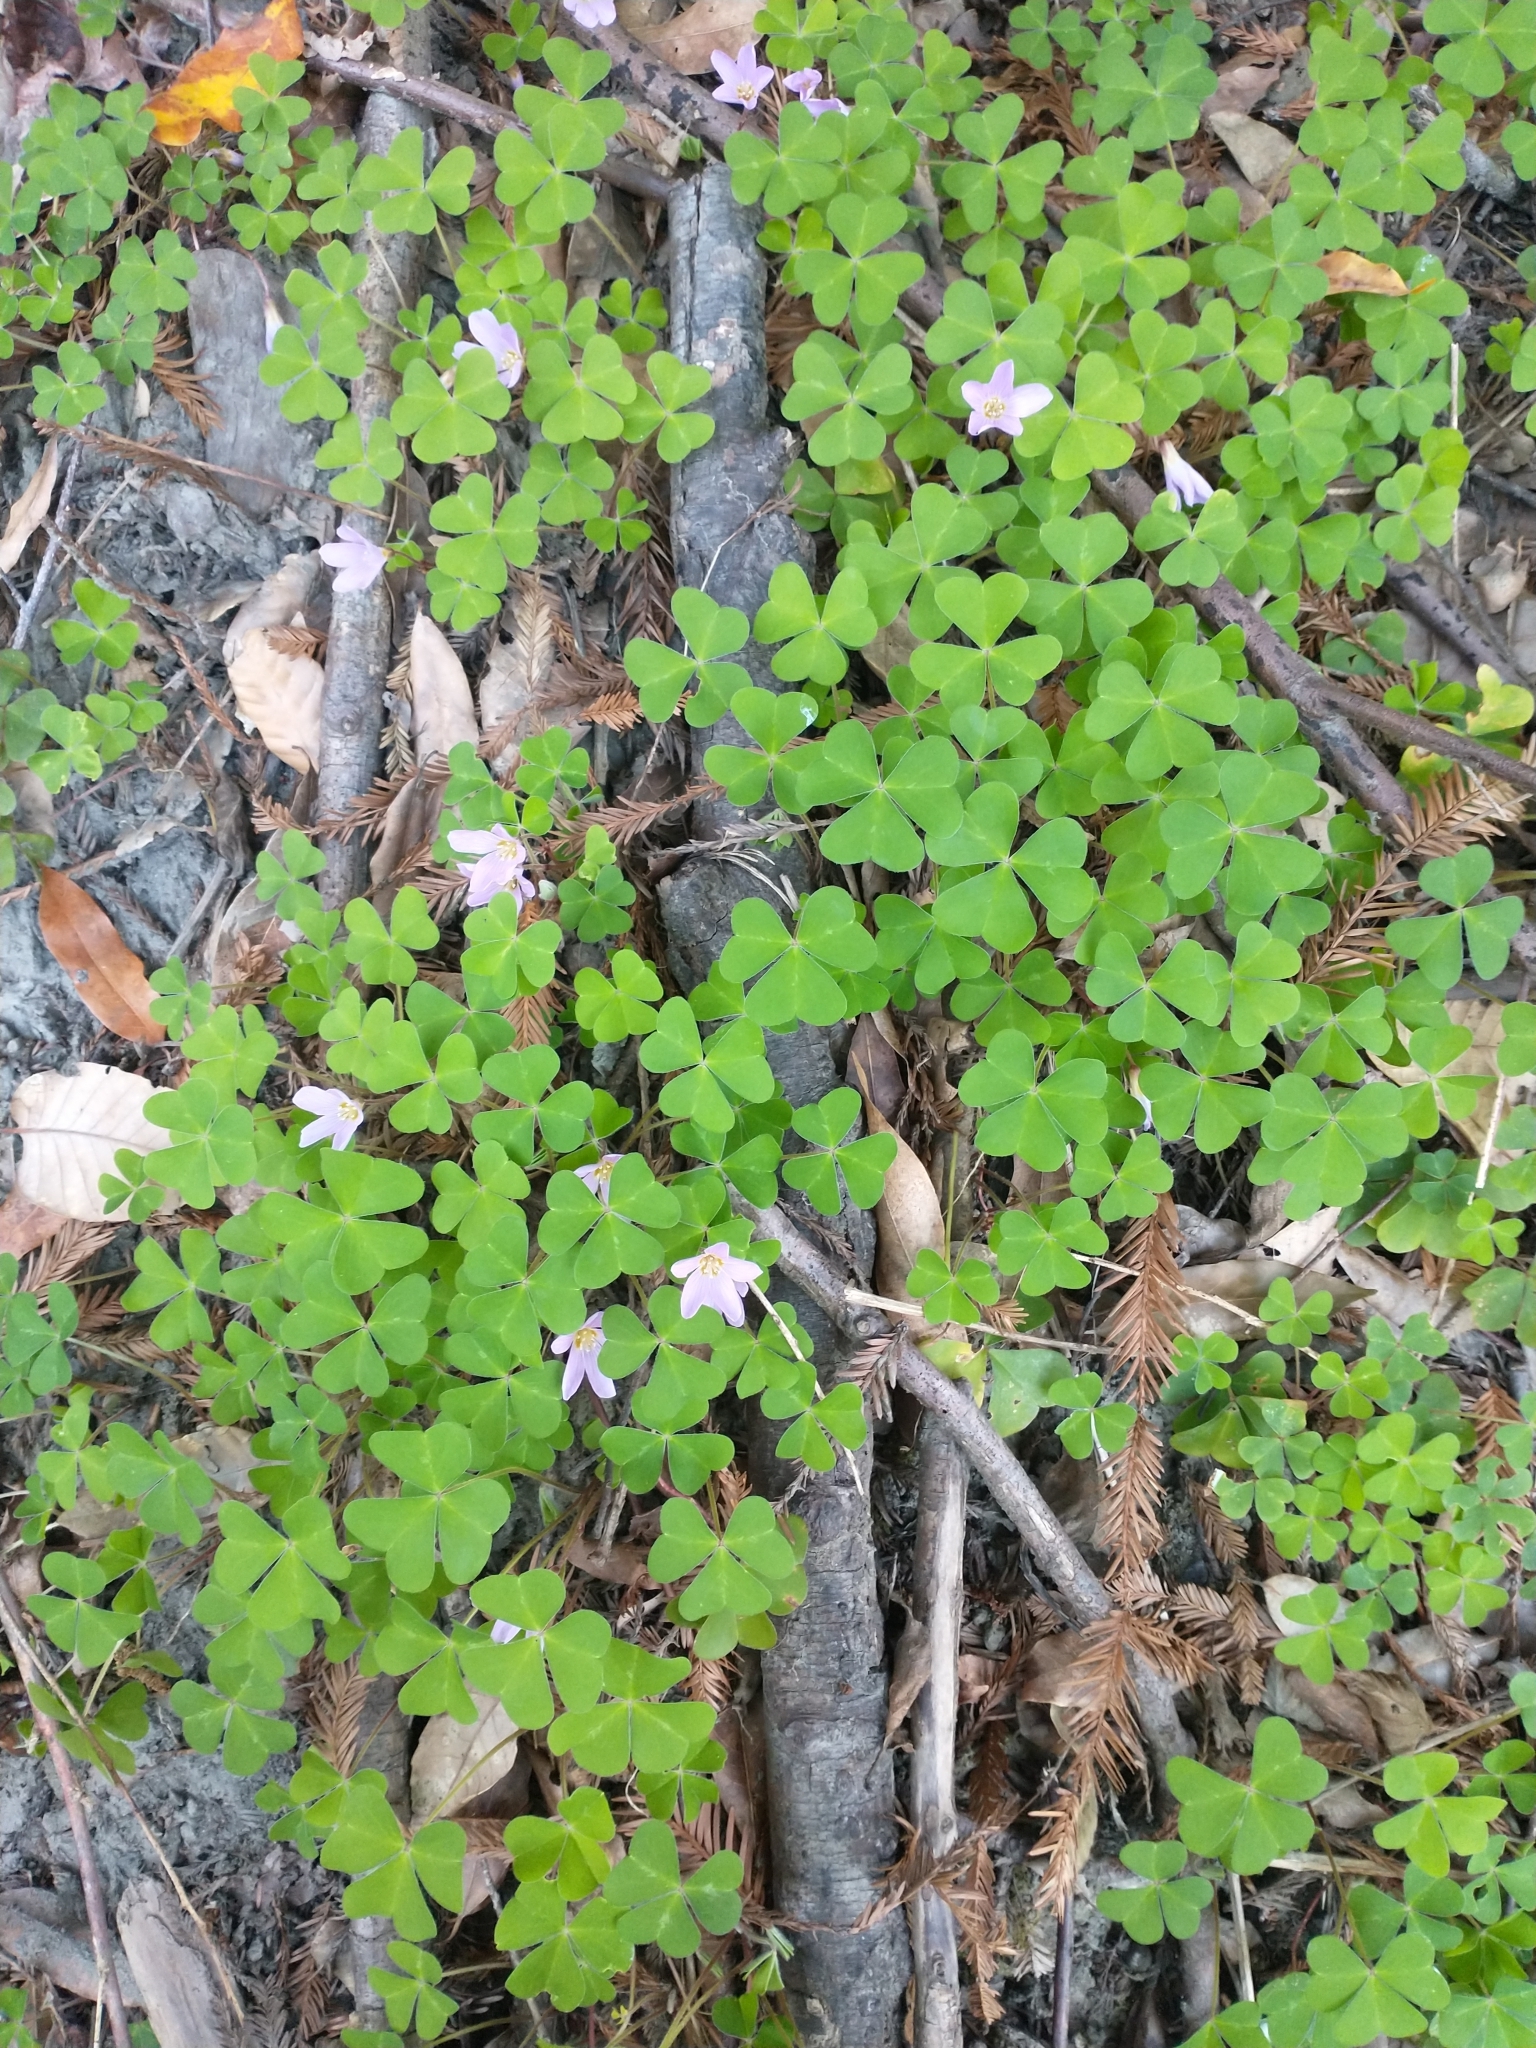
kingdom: Plantae
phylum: Tracheophyta
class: Magnoliopsida
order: Oxalidales
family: Oxalidaceae
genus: Oxalis
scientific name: Oxalis oregana
